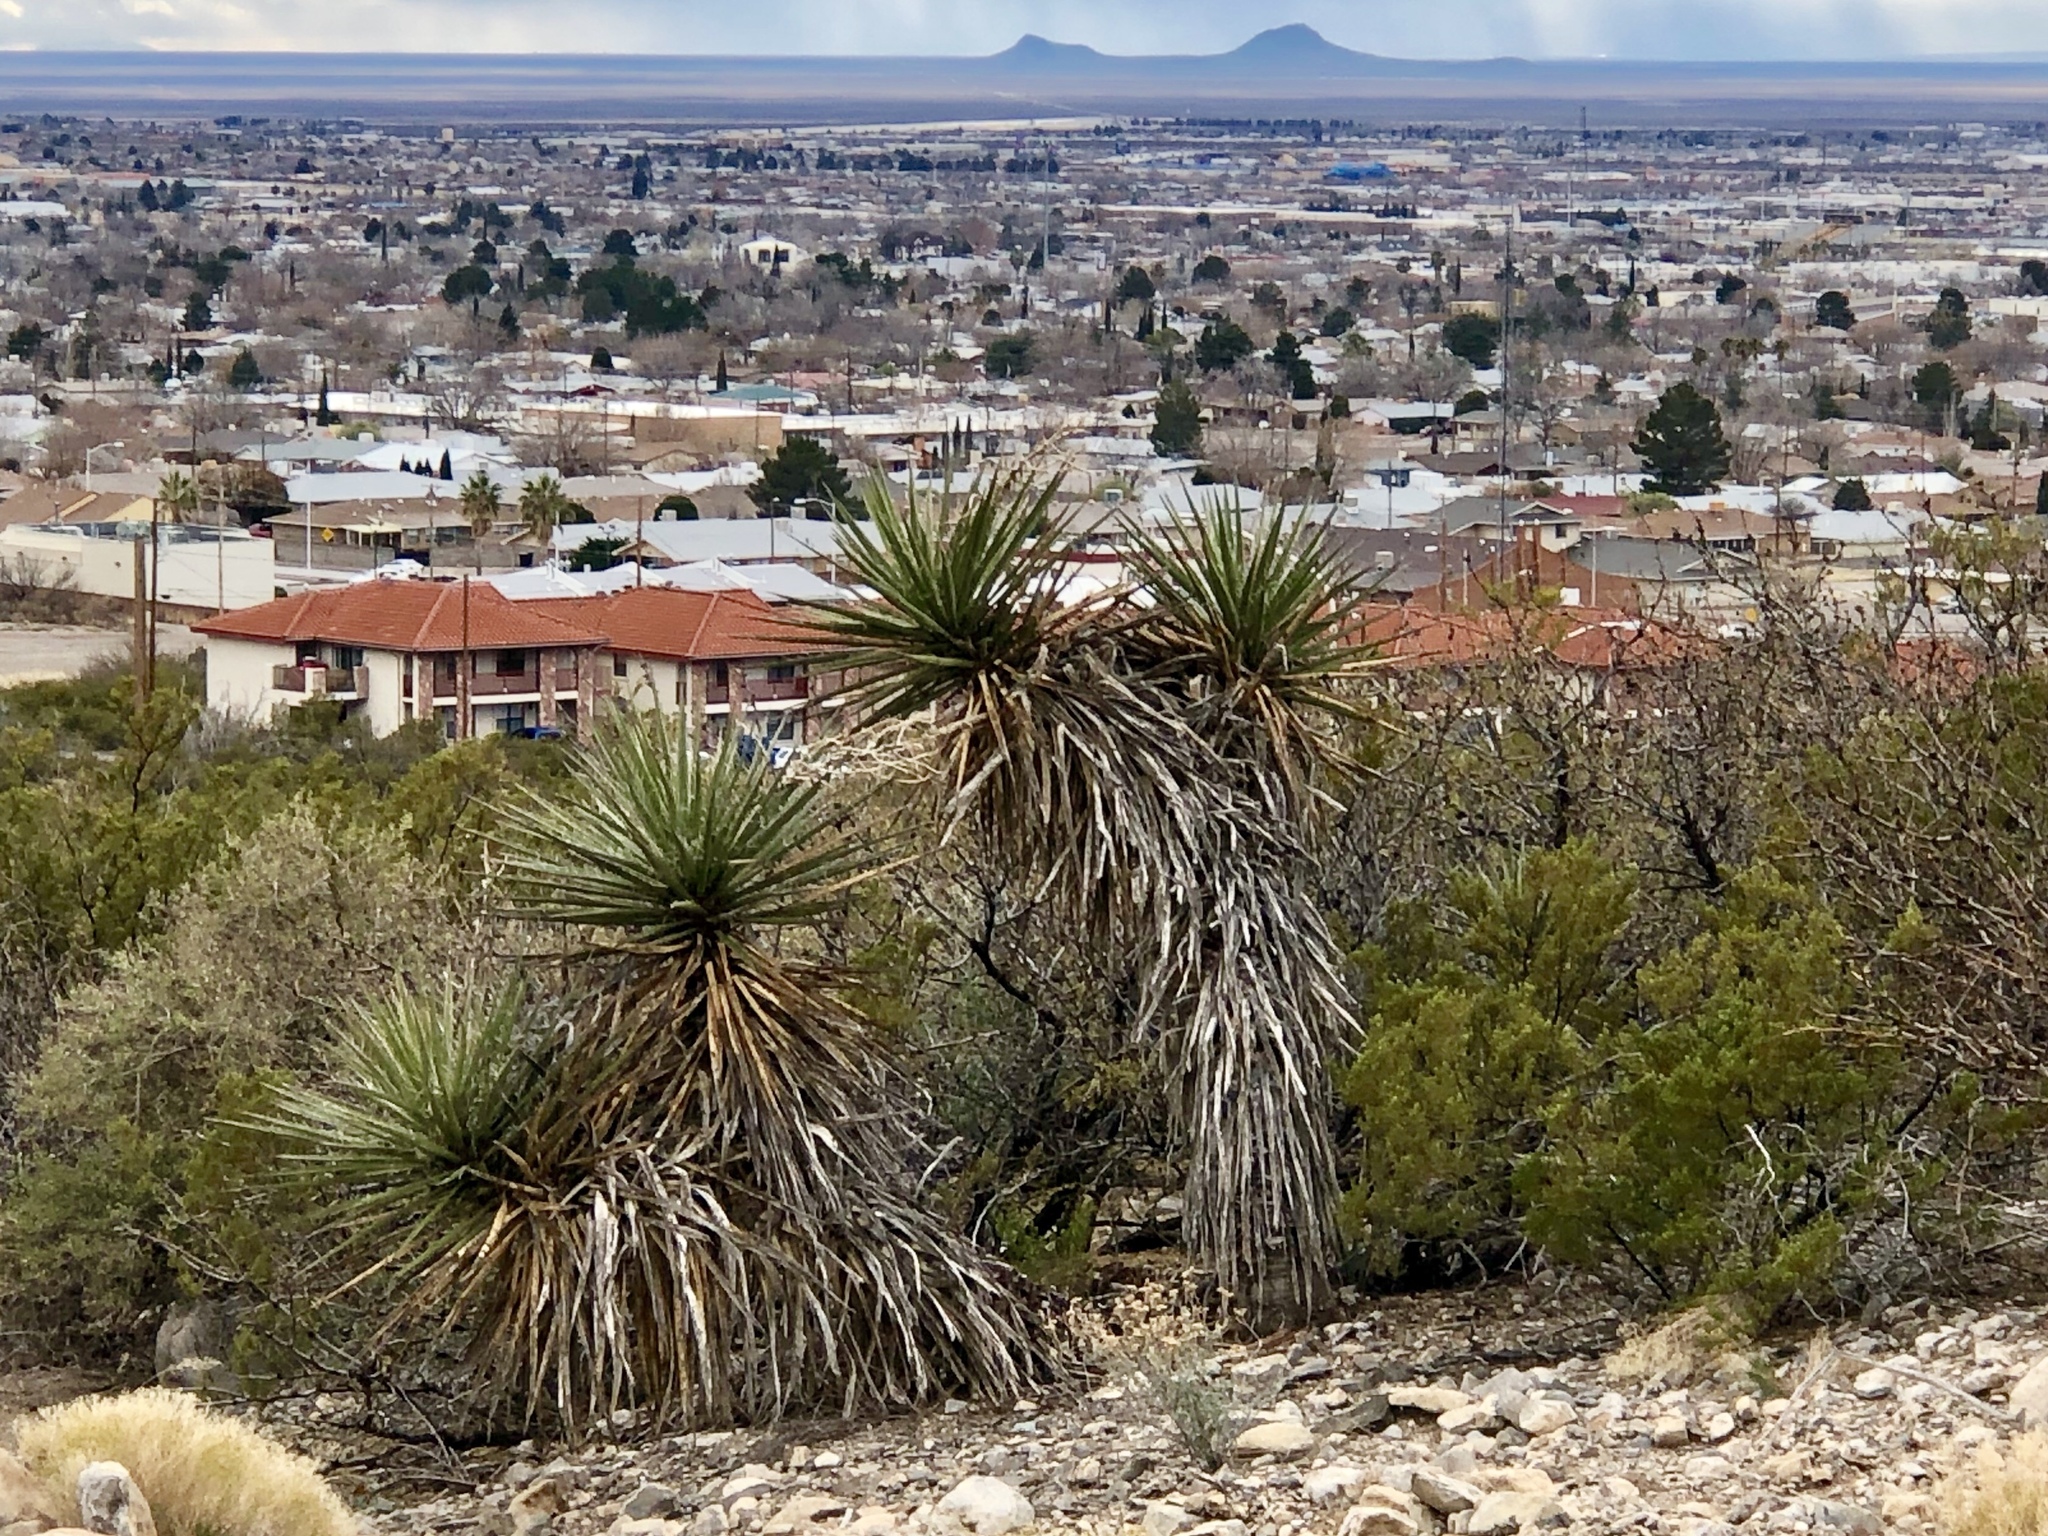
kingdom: Plantae
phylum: Tracheophyta
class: Liliopsida
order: Asparagales
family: Asparagaceae
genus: Yucca
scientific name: Yucca treculiana
